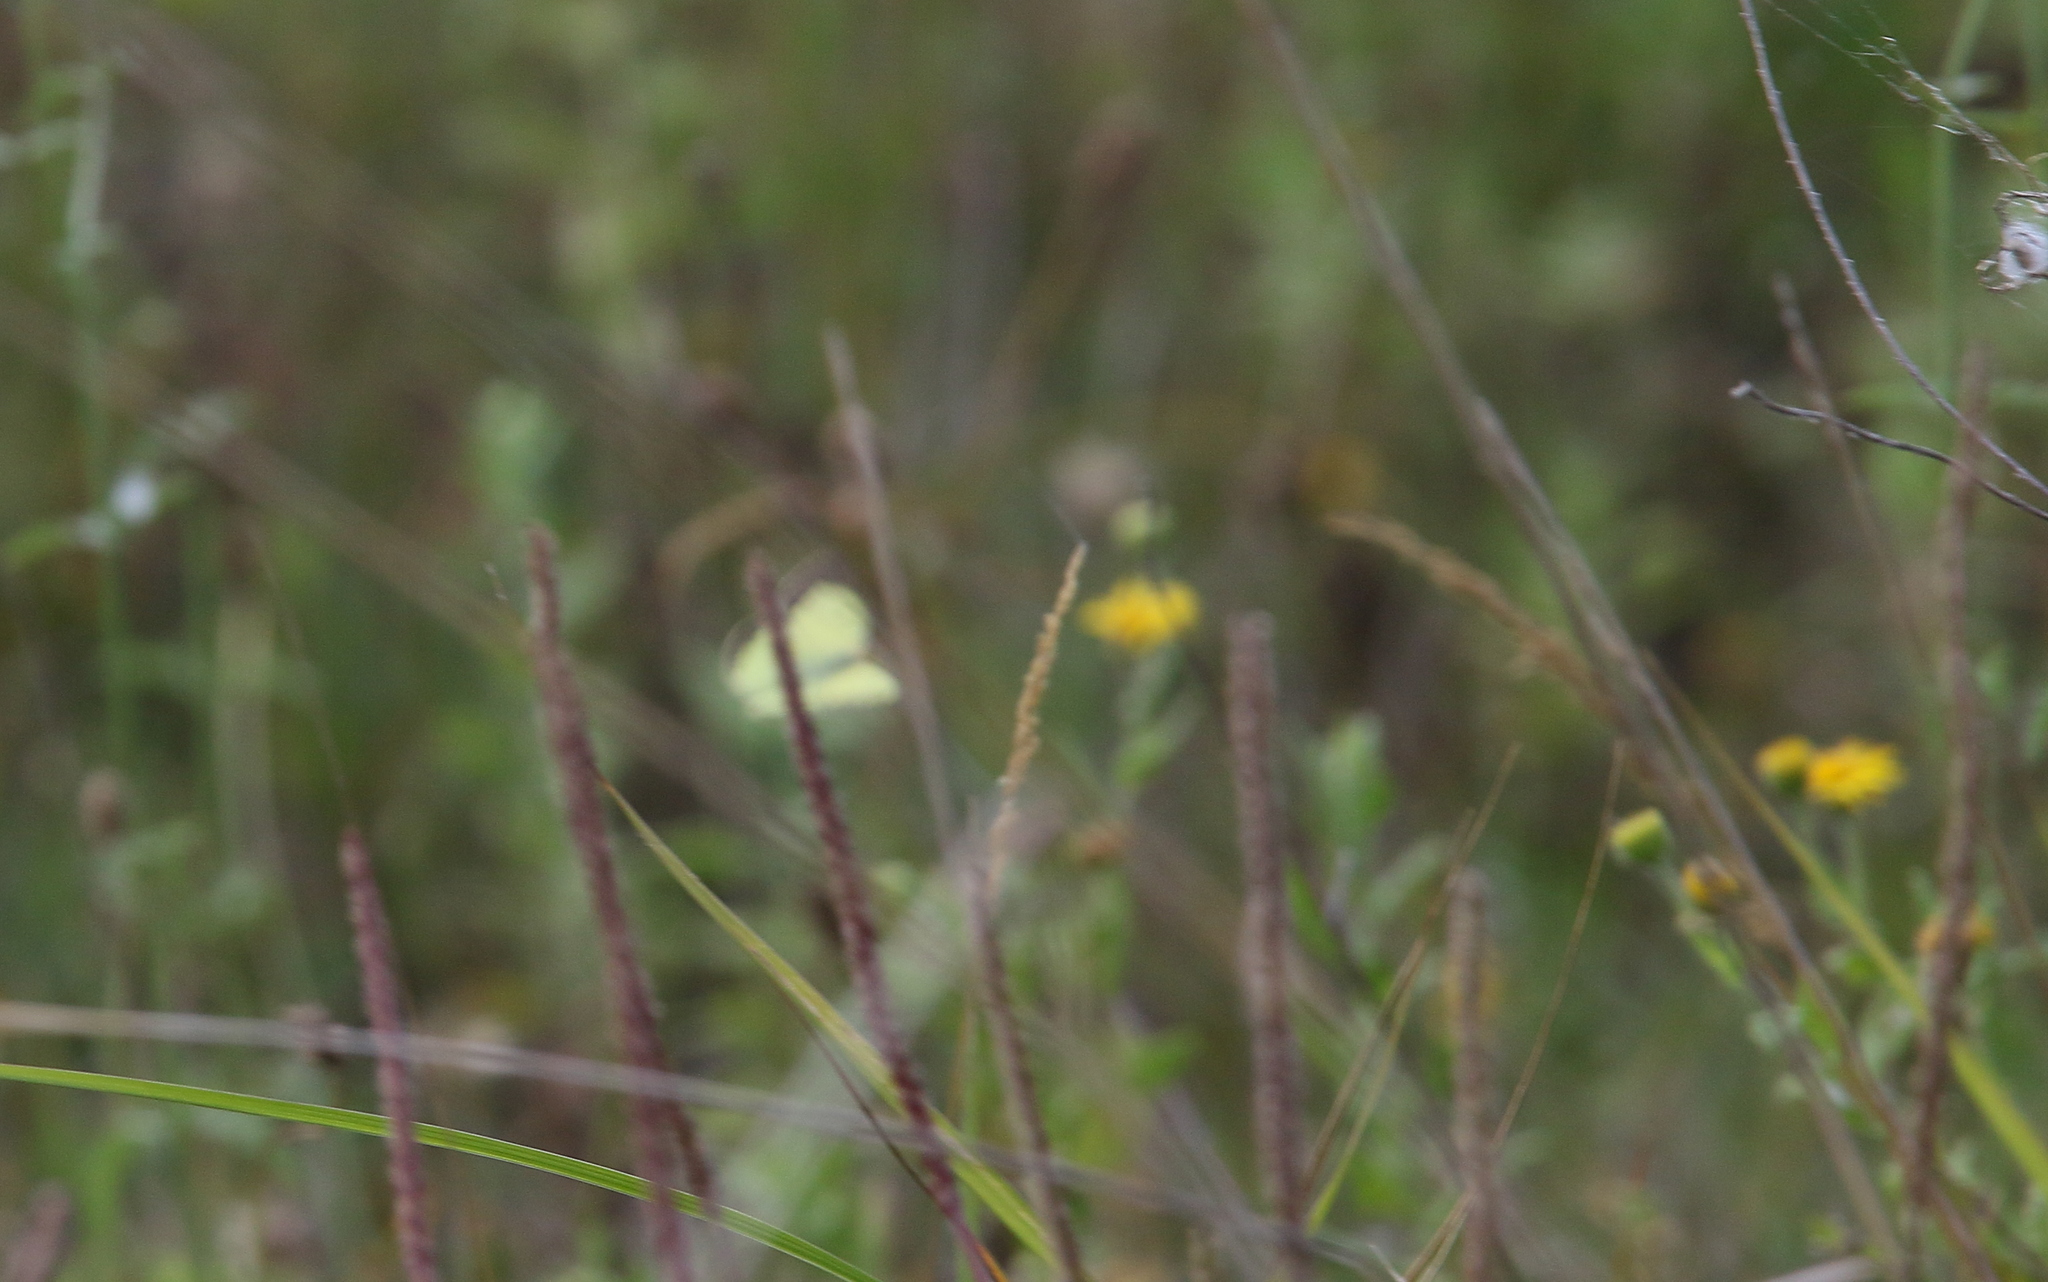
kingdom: Animalia
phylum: Arthropoda
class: Insecta
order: Lepidoptera
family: Pieridae
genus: Colias
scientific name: Colias erate
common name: Eastern pale clouded yellow
